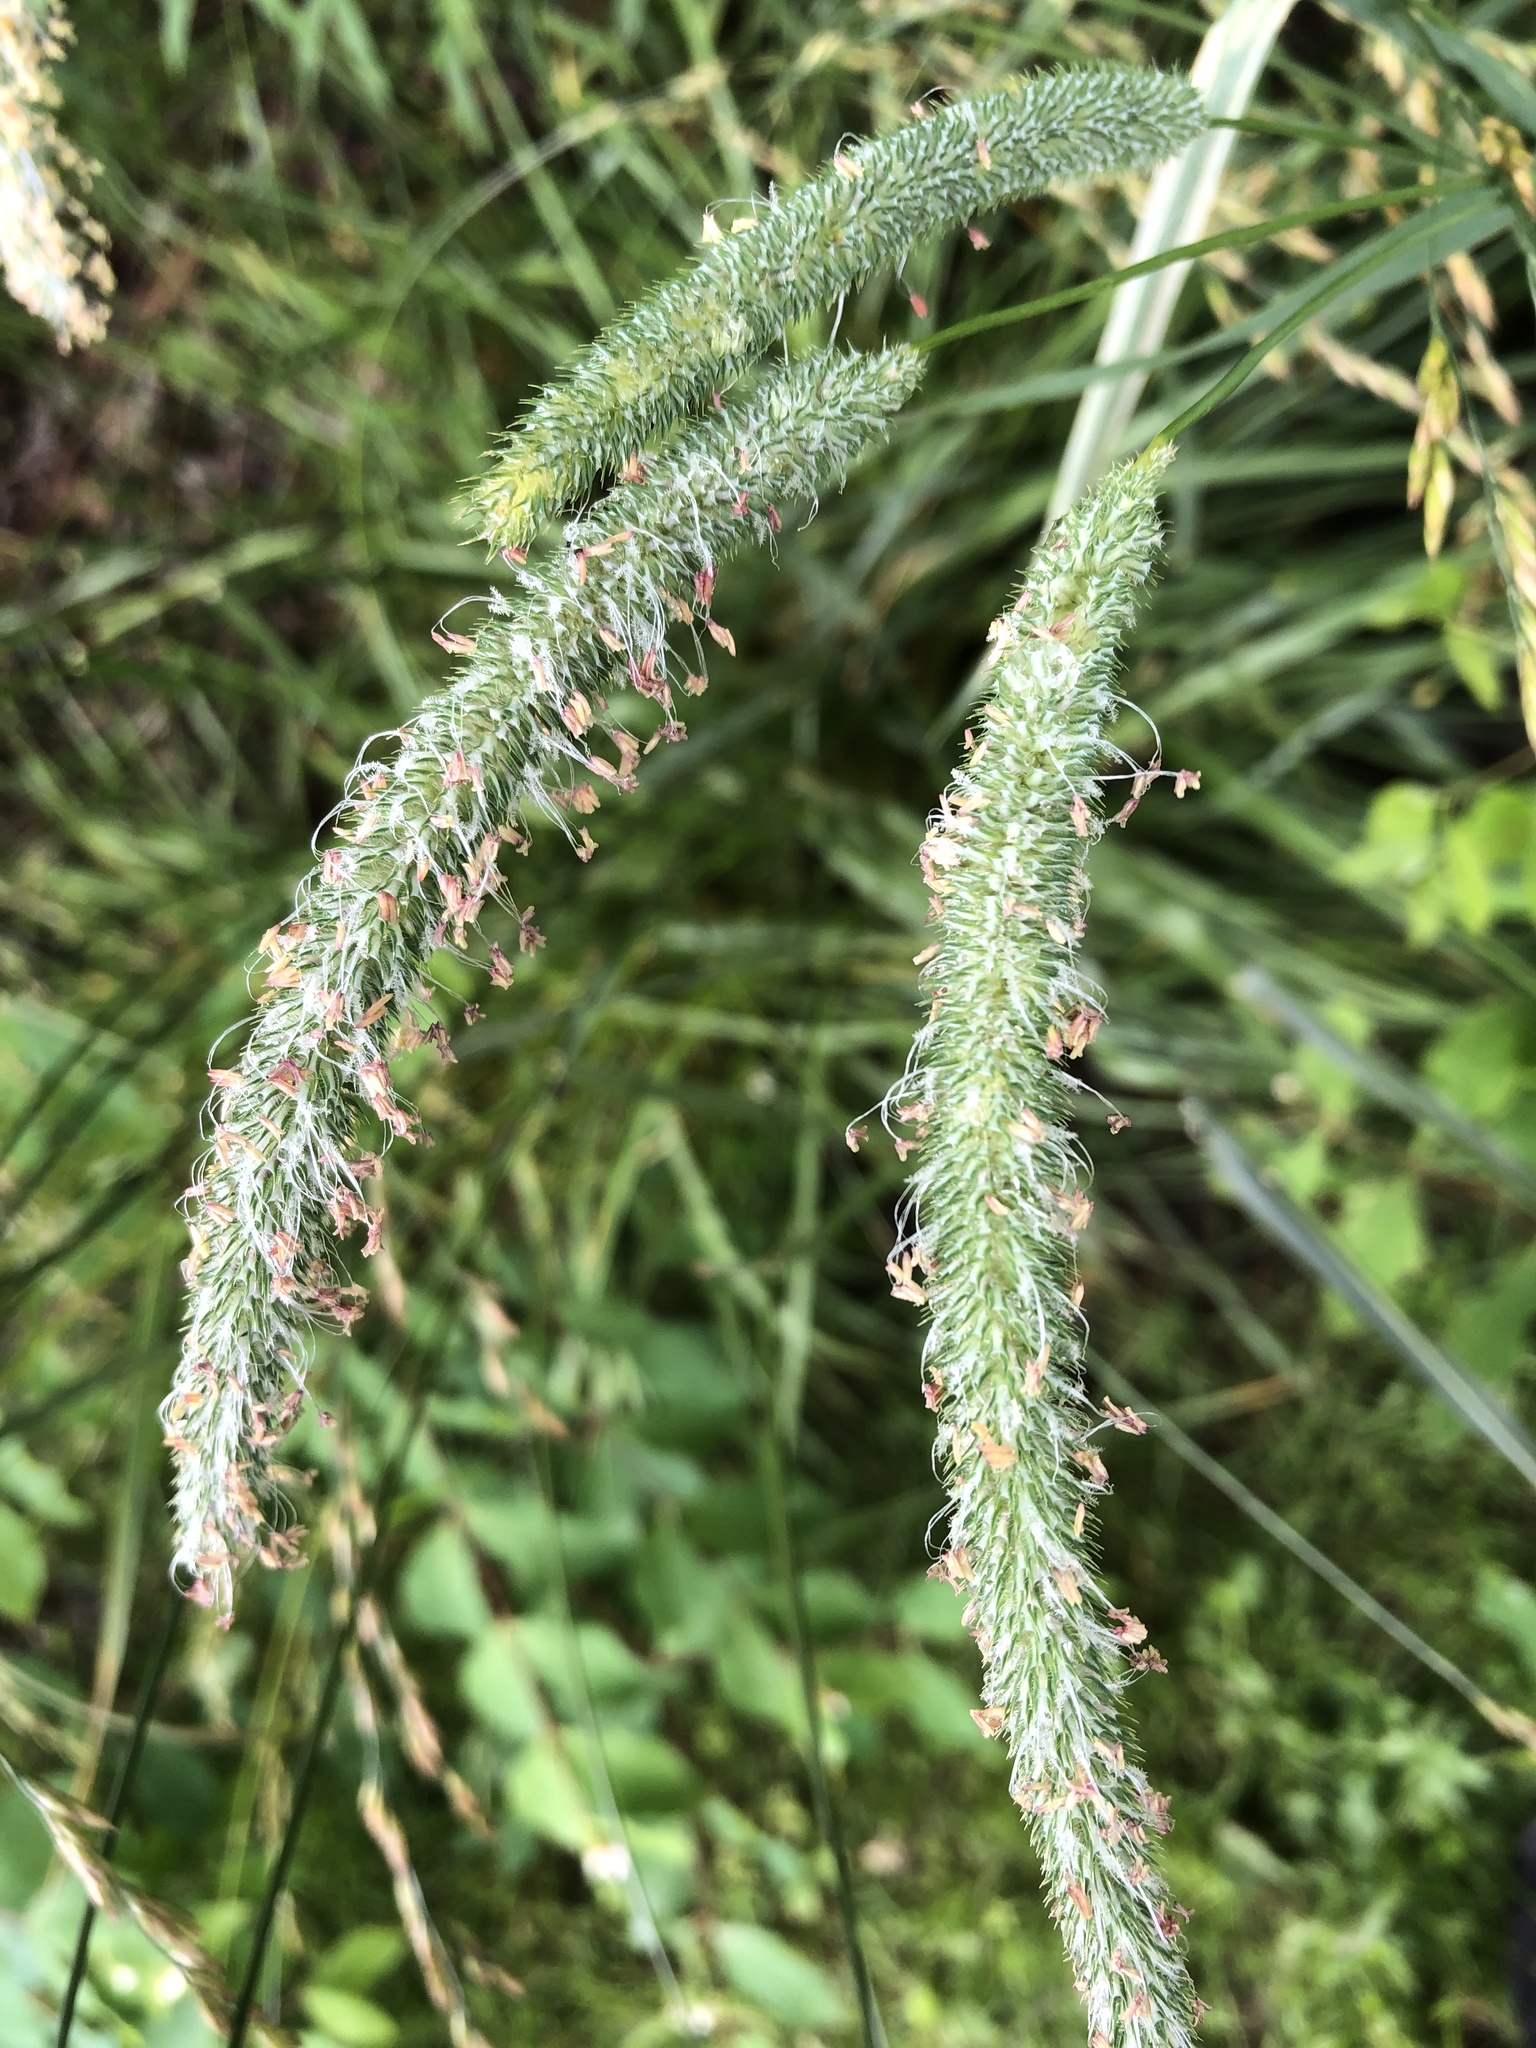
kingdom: Plantae
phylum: Tracheophyta
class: Liliopsida
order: Poales
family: Poaceae
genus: Phleum
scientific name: Phleum pratense
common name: Timothy grass
